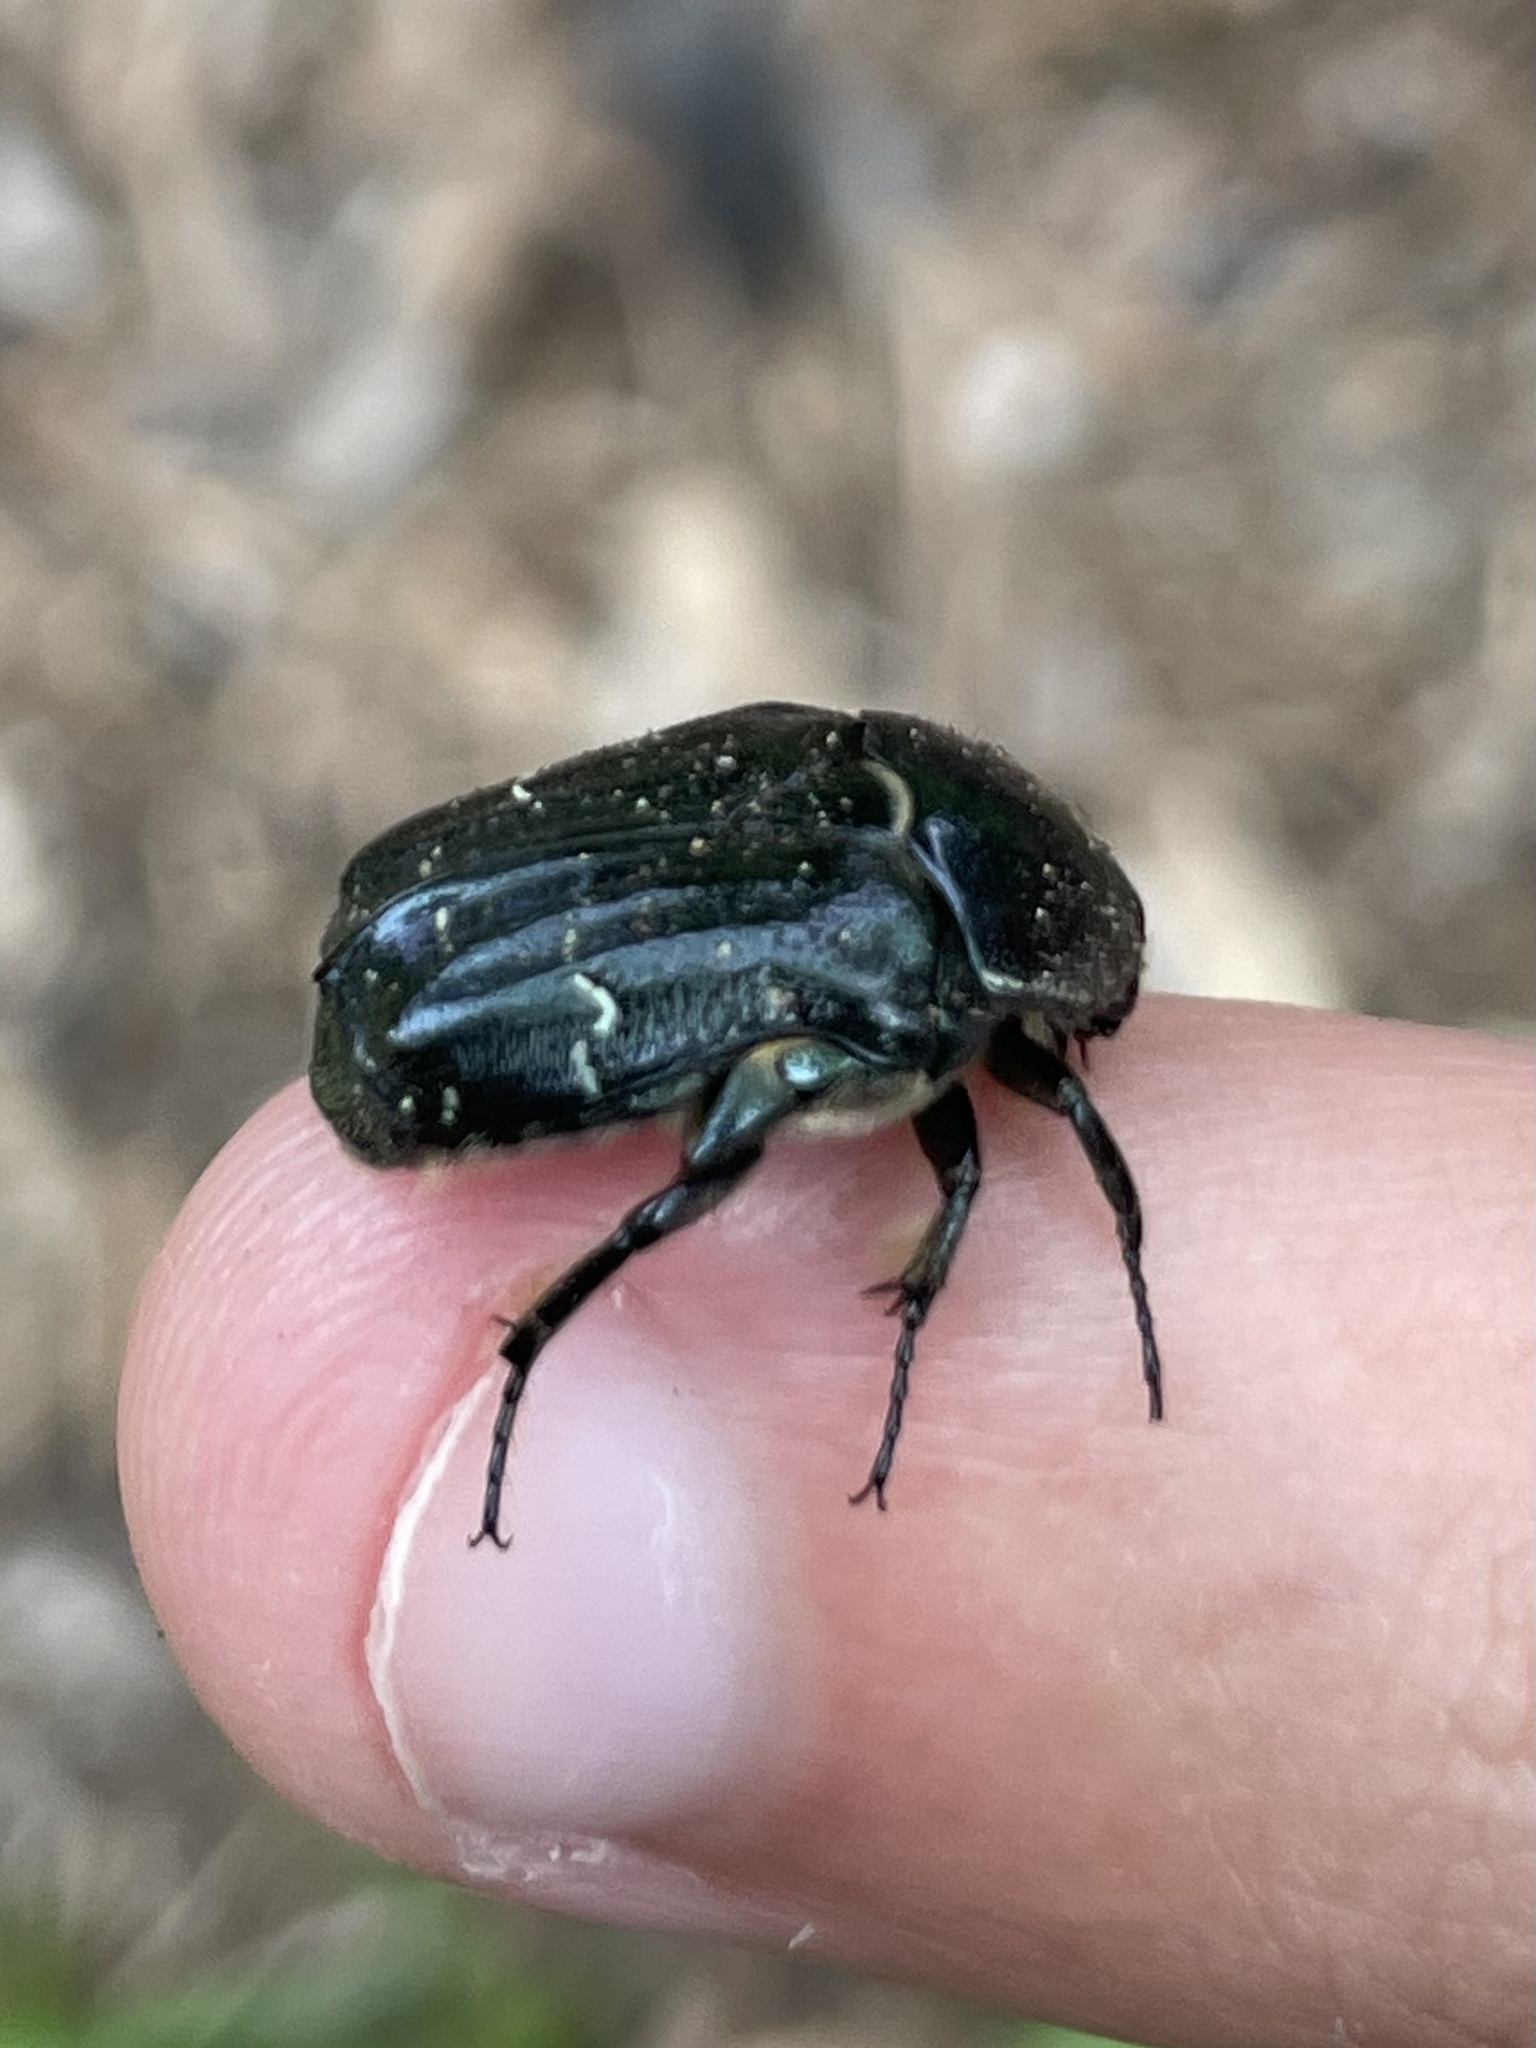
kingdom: Animalia
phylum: Arthropoda
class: Insecta
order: Coleoptera
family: Scarabaeidae
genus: Euphoria
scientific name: Euphoria sepulcralis
